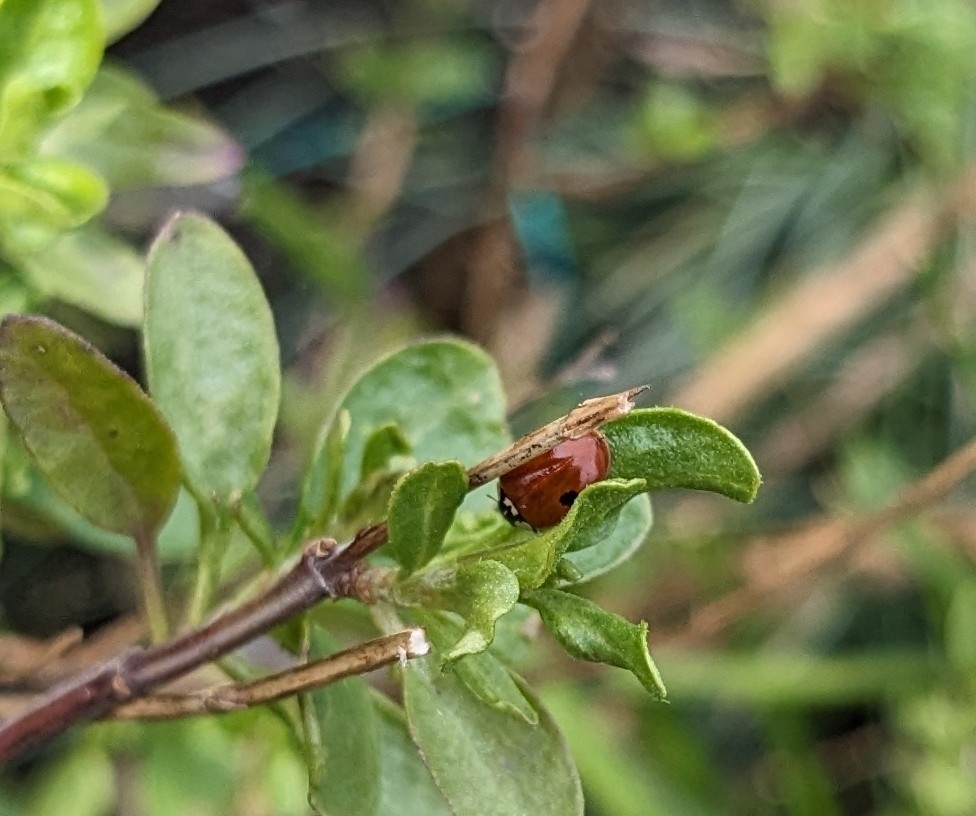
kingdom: Animalia
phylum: Arthropoda
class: Insecta
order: Coleoptera
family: Coccinellidae
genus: Adalia
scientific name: Adalia bipunctata
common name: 2-spot ladybird
